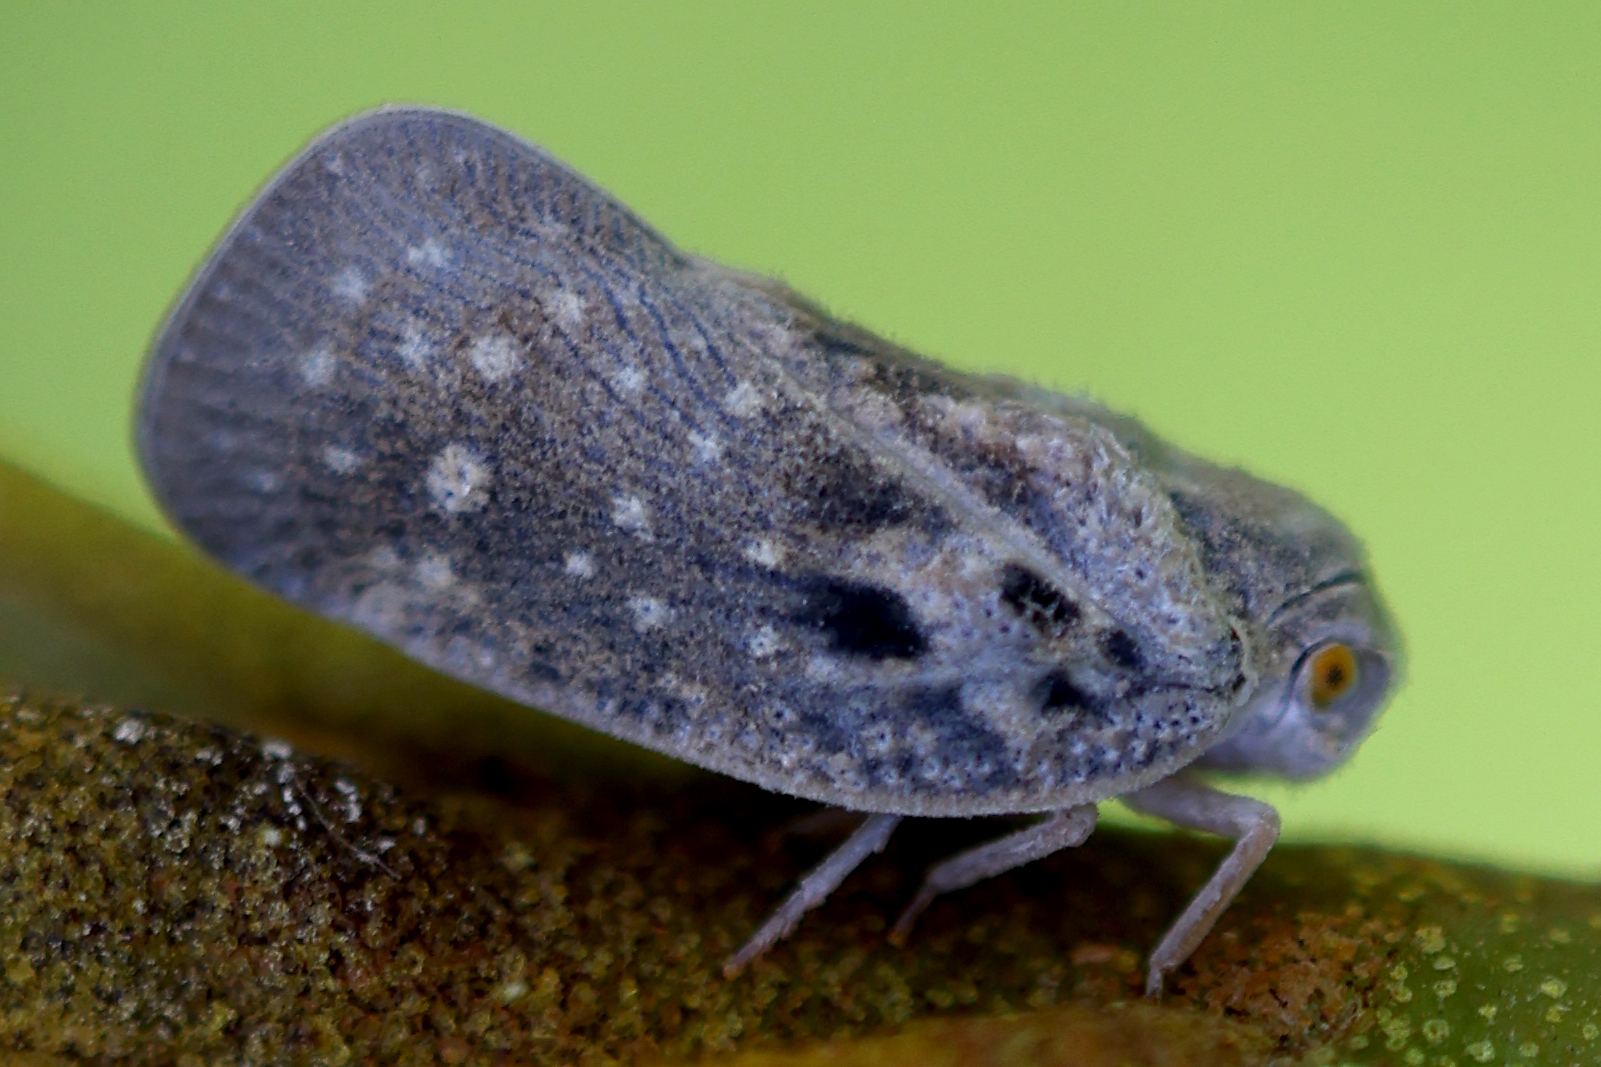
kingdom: Animalia
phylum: Arthropoda
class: Insecta
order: Hemiptera
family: Flatidae
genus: Metcalfa
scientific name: Metcalfa pruinosa
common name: Citrus flatid planthopper
